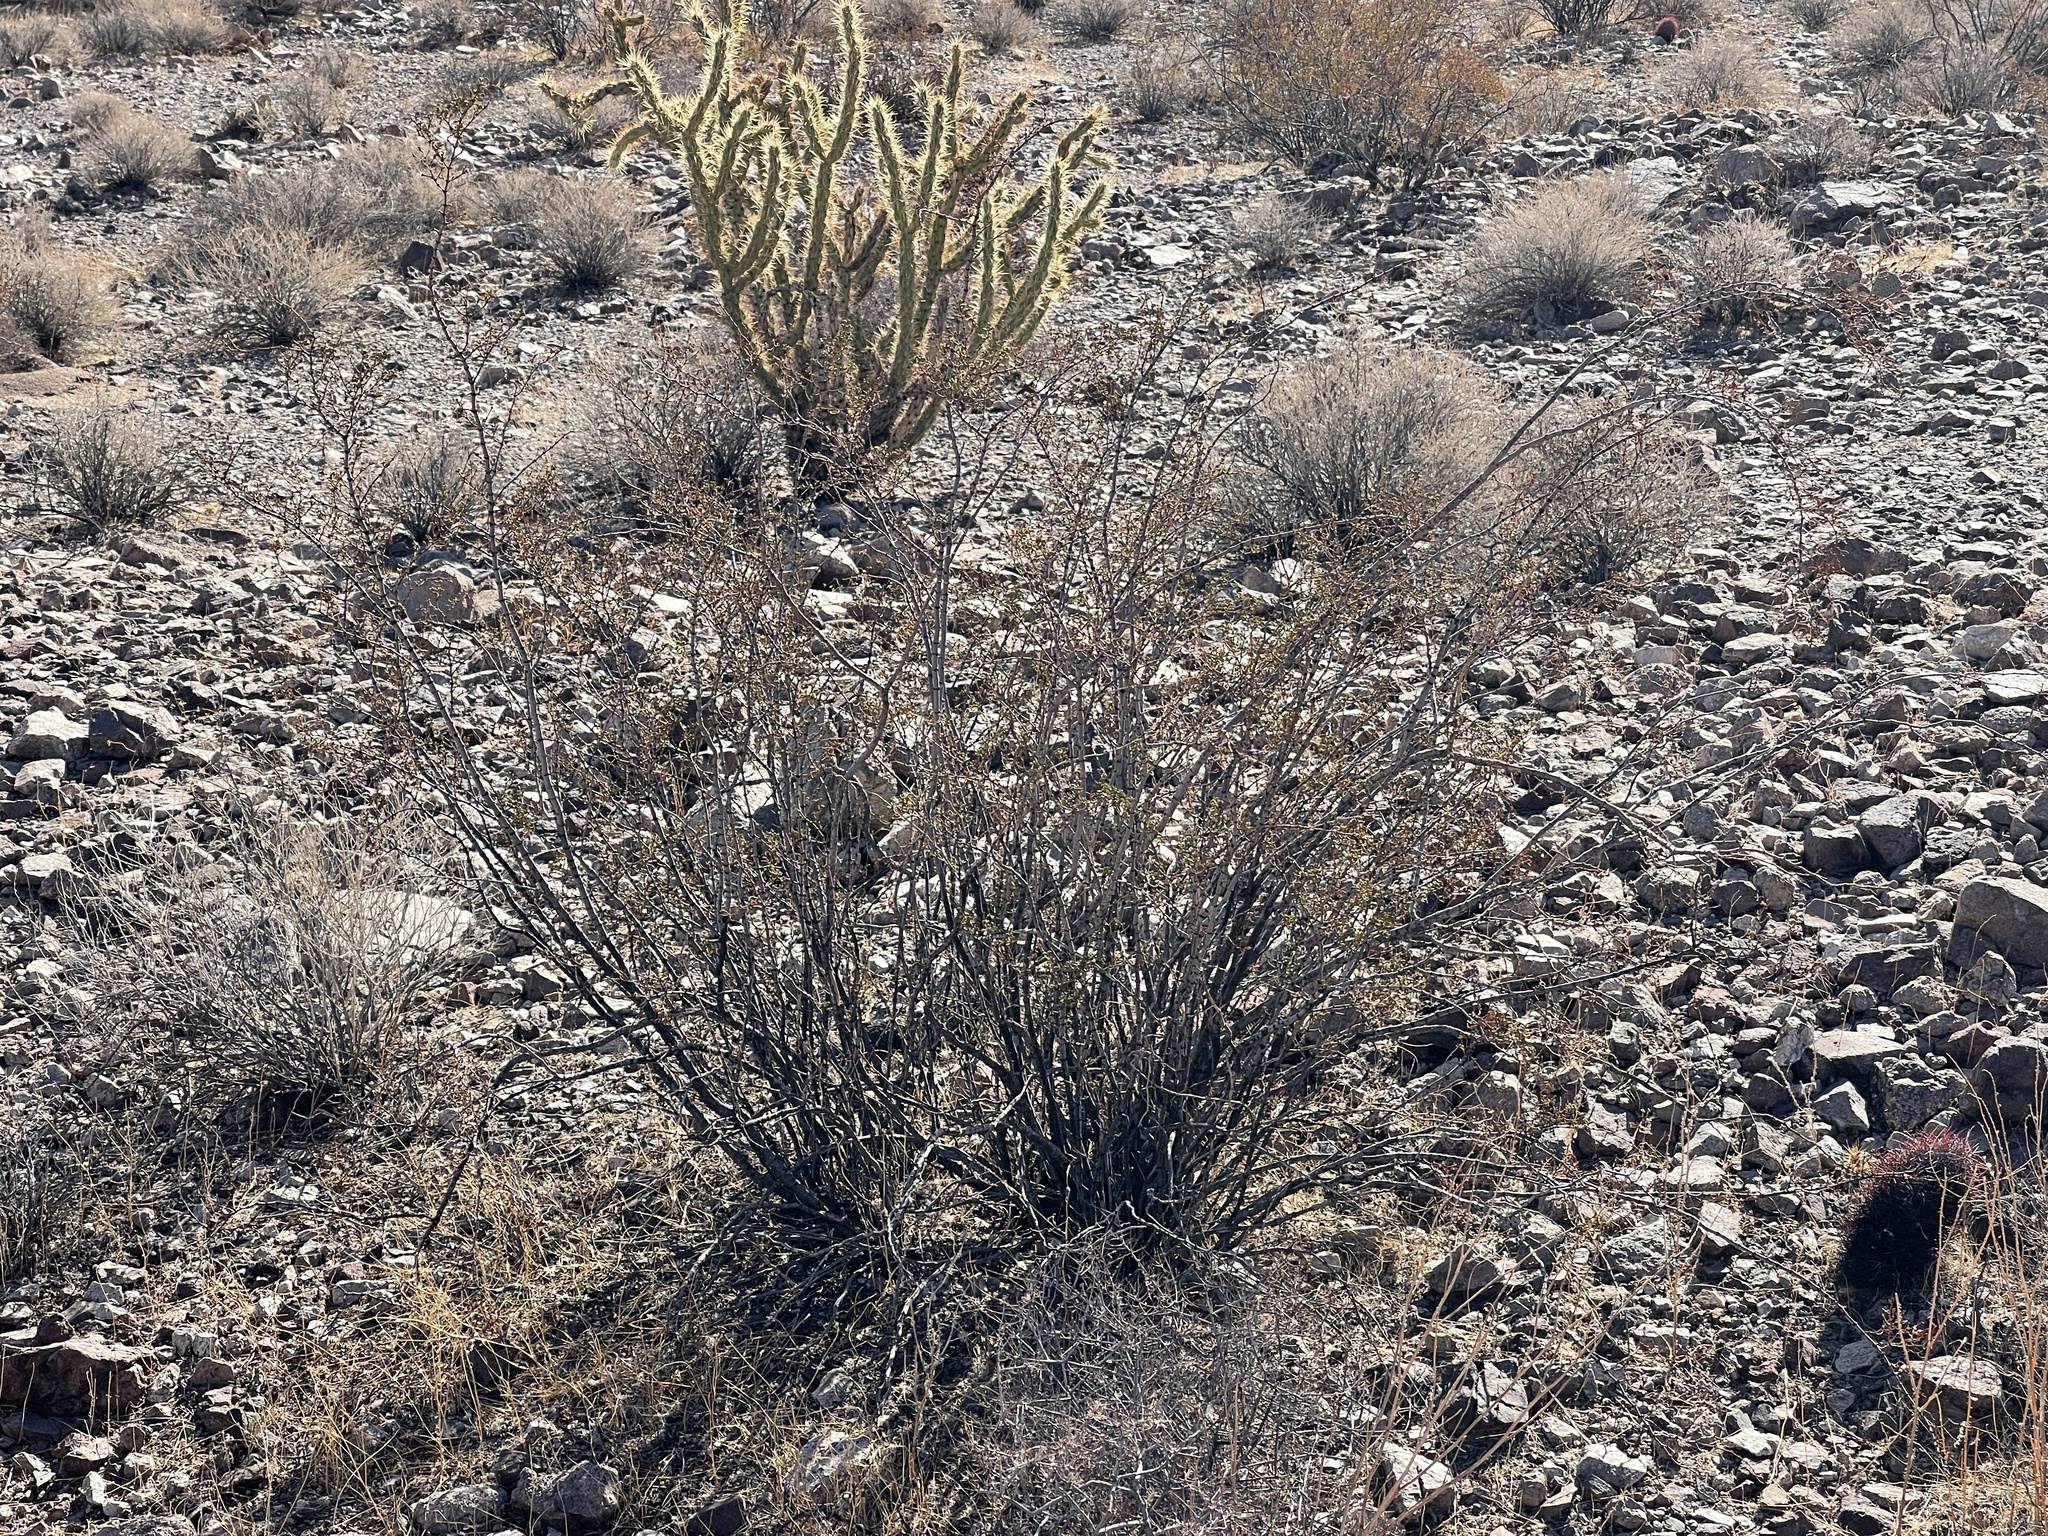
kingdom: Plantae
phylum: Tracheophyta
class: Magnoliopsida
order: Zygophyllales
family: Zygophyllaceae
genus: Larrea
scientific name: Larrea tridentata
